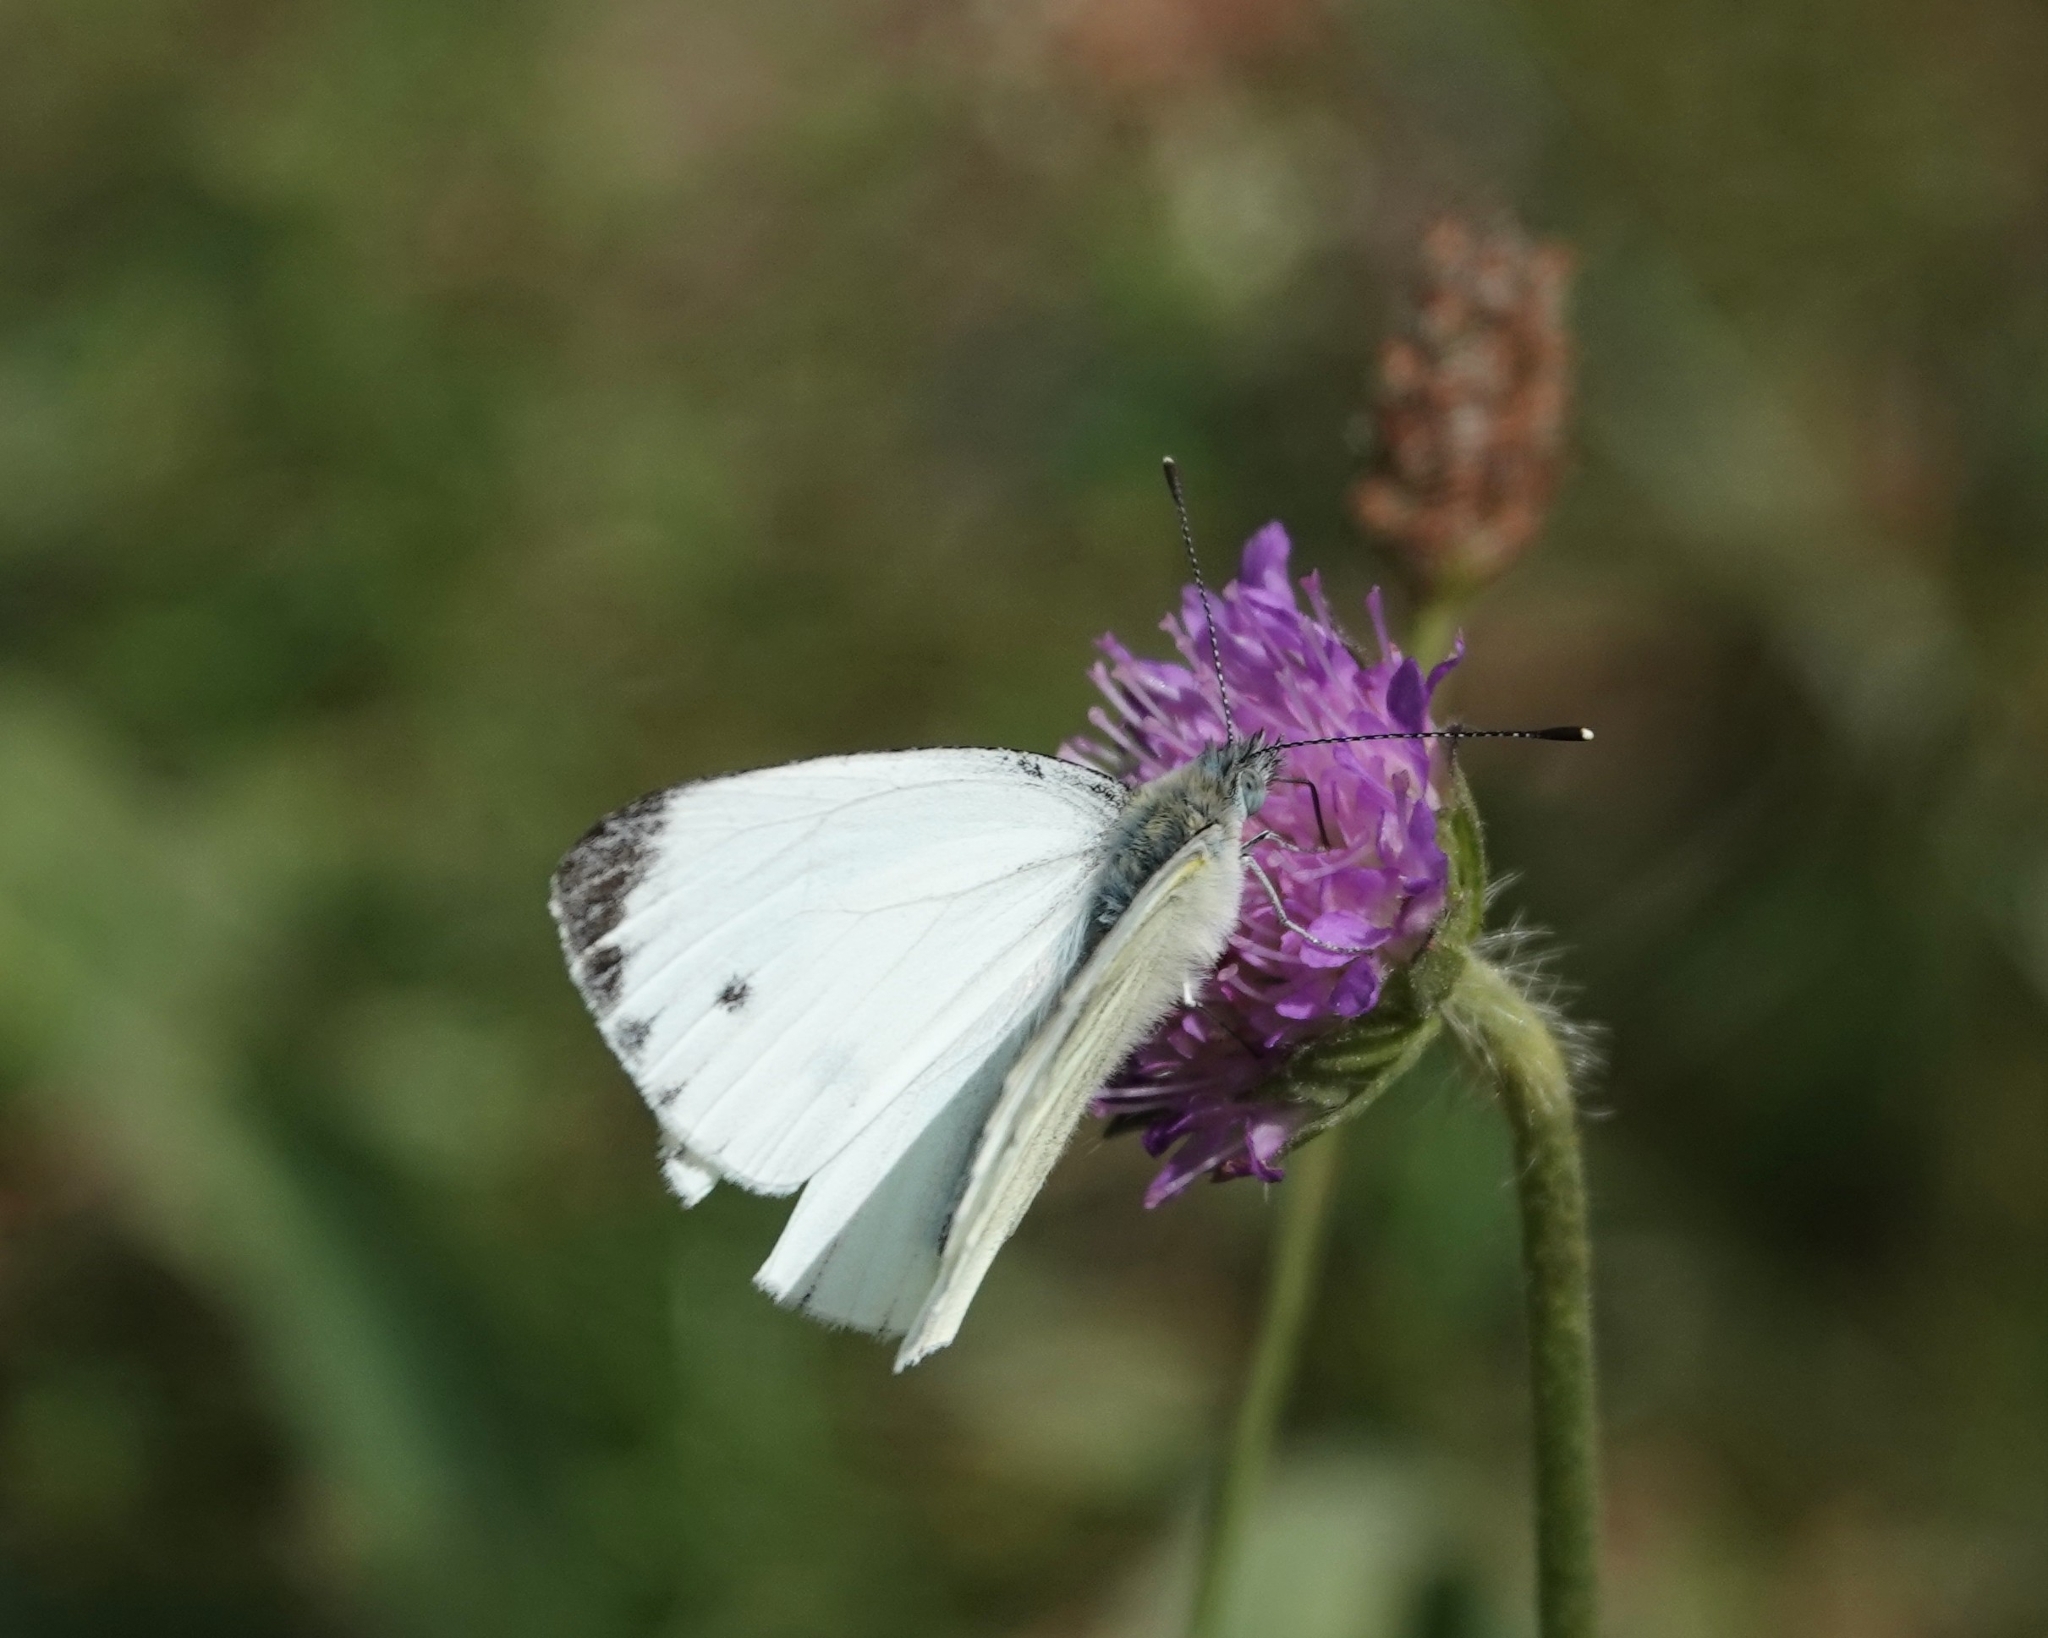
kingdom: Animalia
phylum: Arthropoda
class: Insecta
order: Lepidoptera
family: Pieridae
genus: Pieris
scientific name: Pieris napi
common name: Green-veined white
